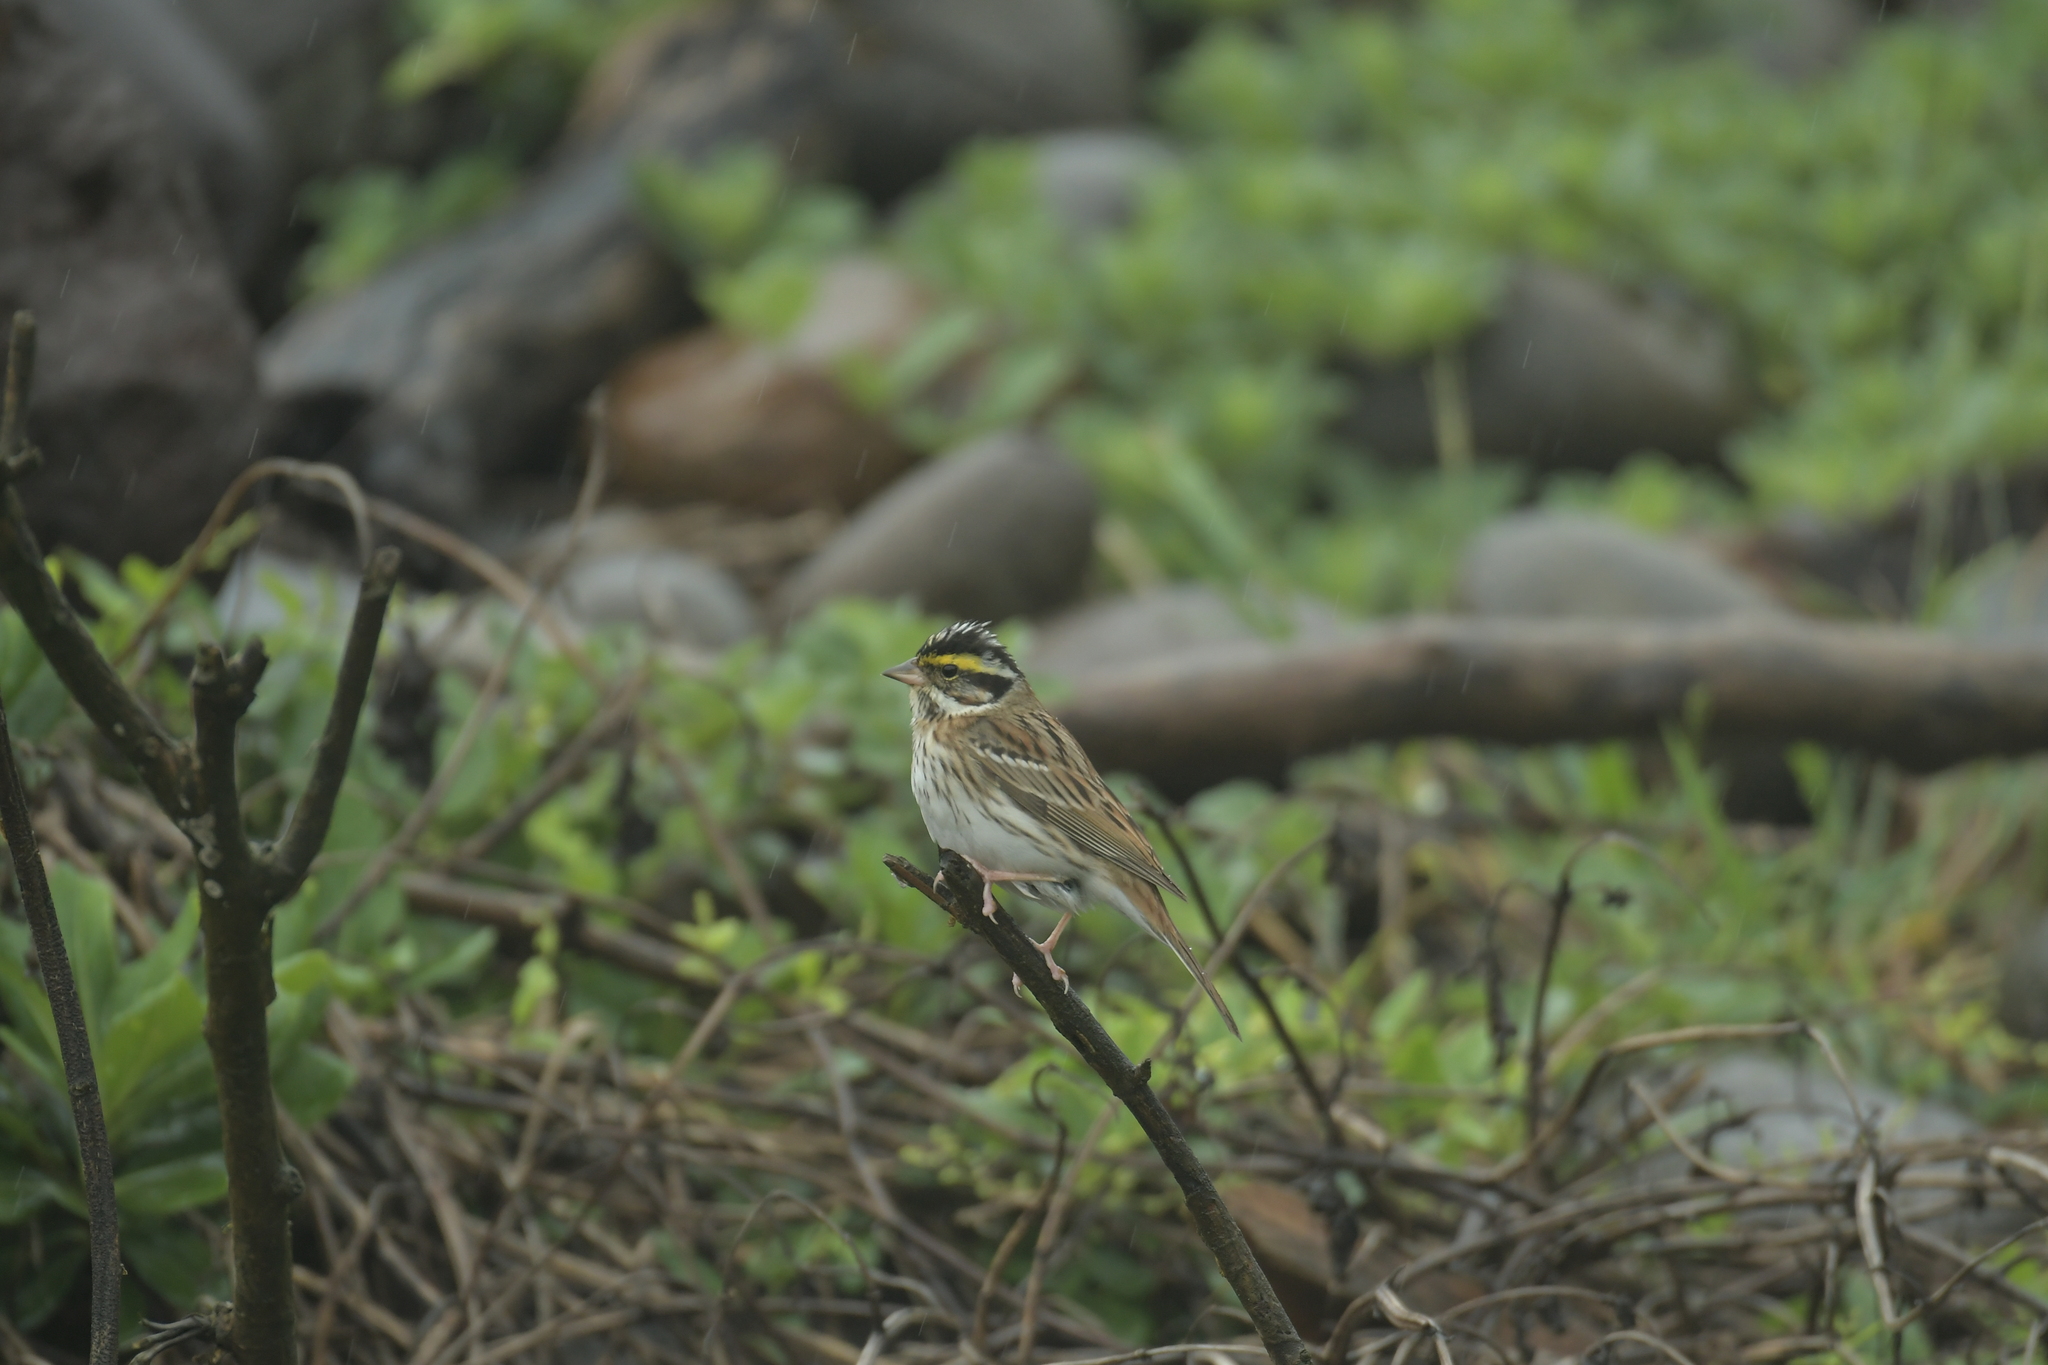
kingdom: Animalia
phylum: Chordata
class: Aves
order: Passeriformes
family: Emberizidae
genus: Emberiza
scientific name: Emberiza chrysophrys
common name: Yellow-browed bunting
